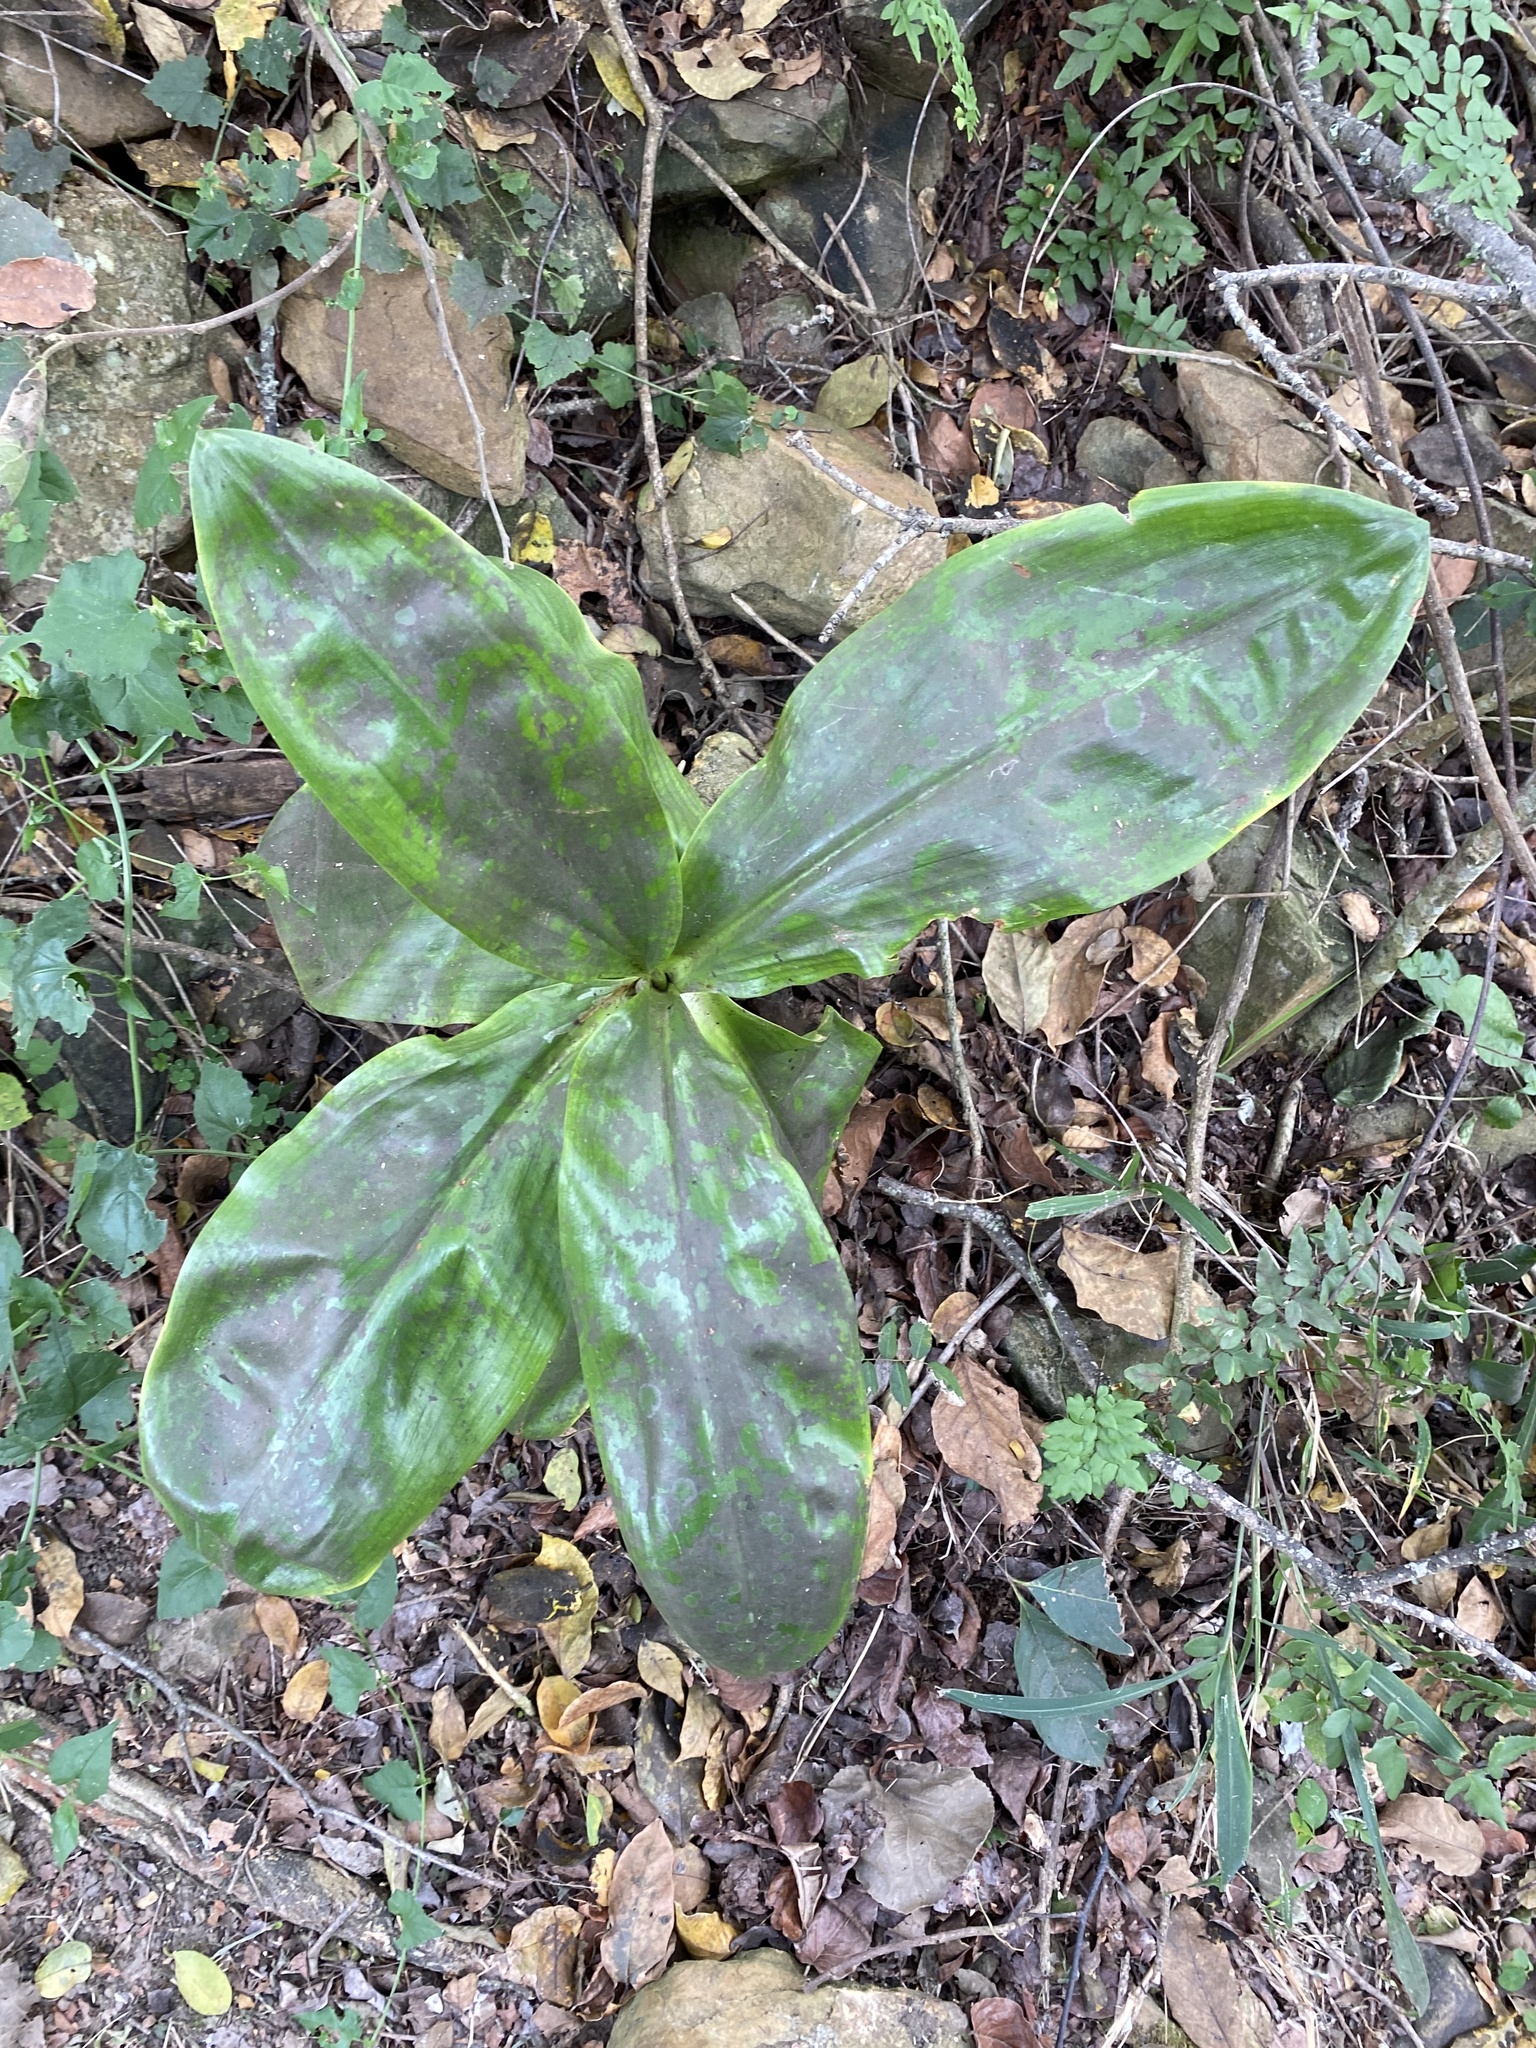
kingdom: Plantae
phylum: Tracheophyta
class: Liliopsida
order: Asparagales
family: Amaryllidaceae
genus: Scadoxus
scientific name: Scadoxus puniceus
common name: Royal-paintbrush
